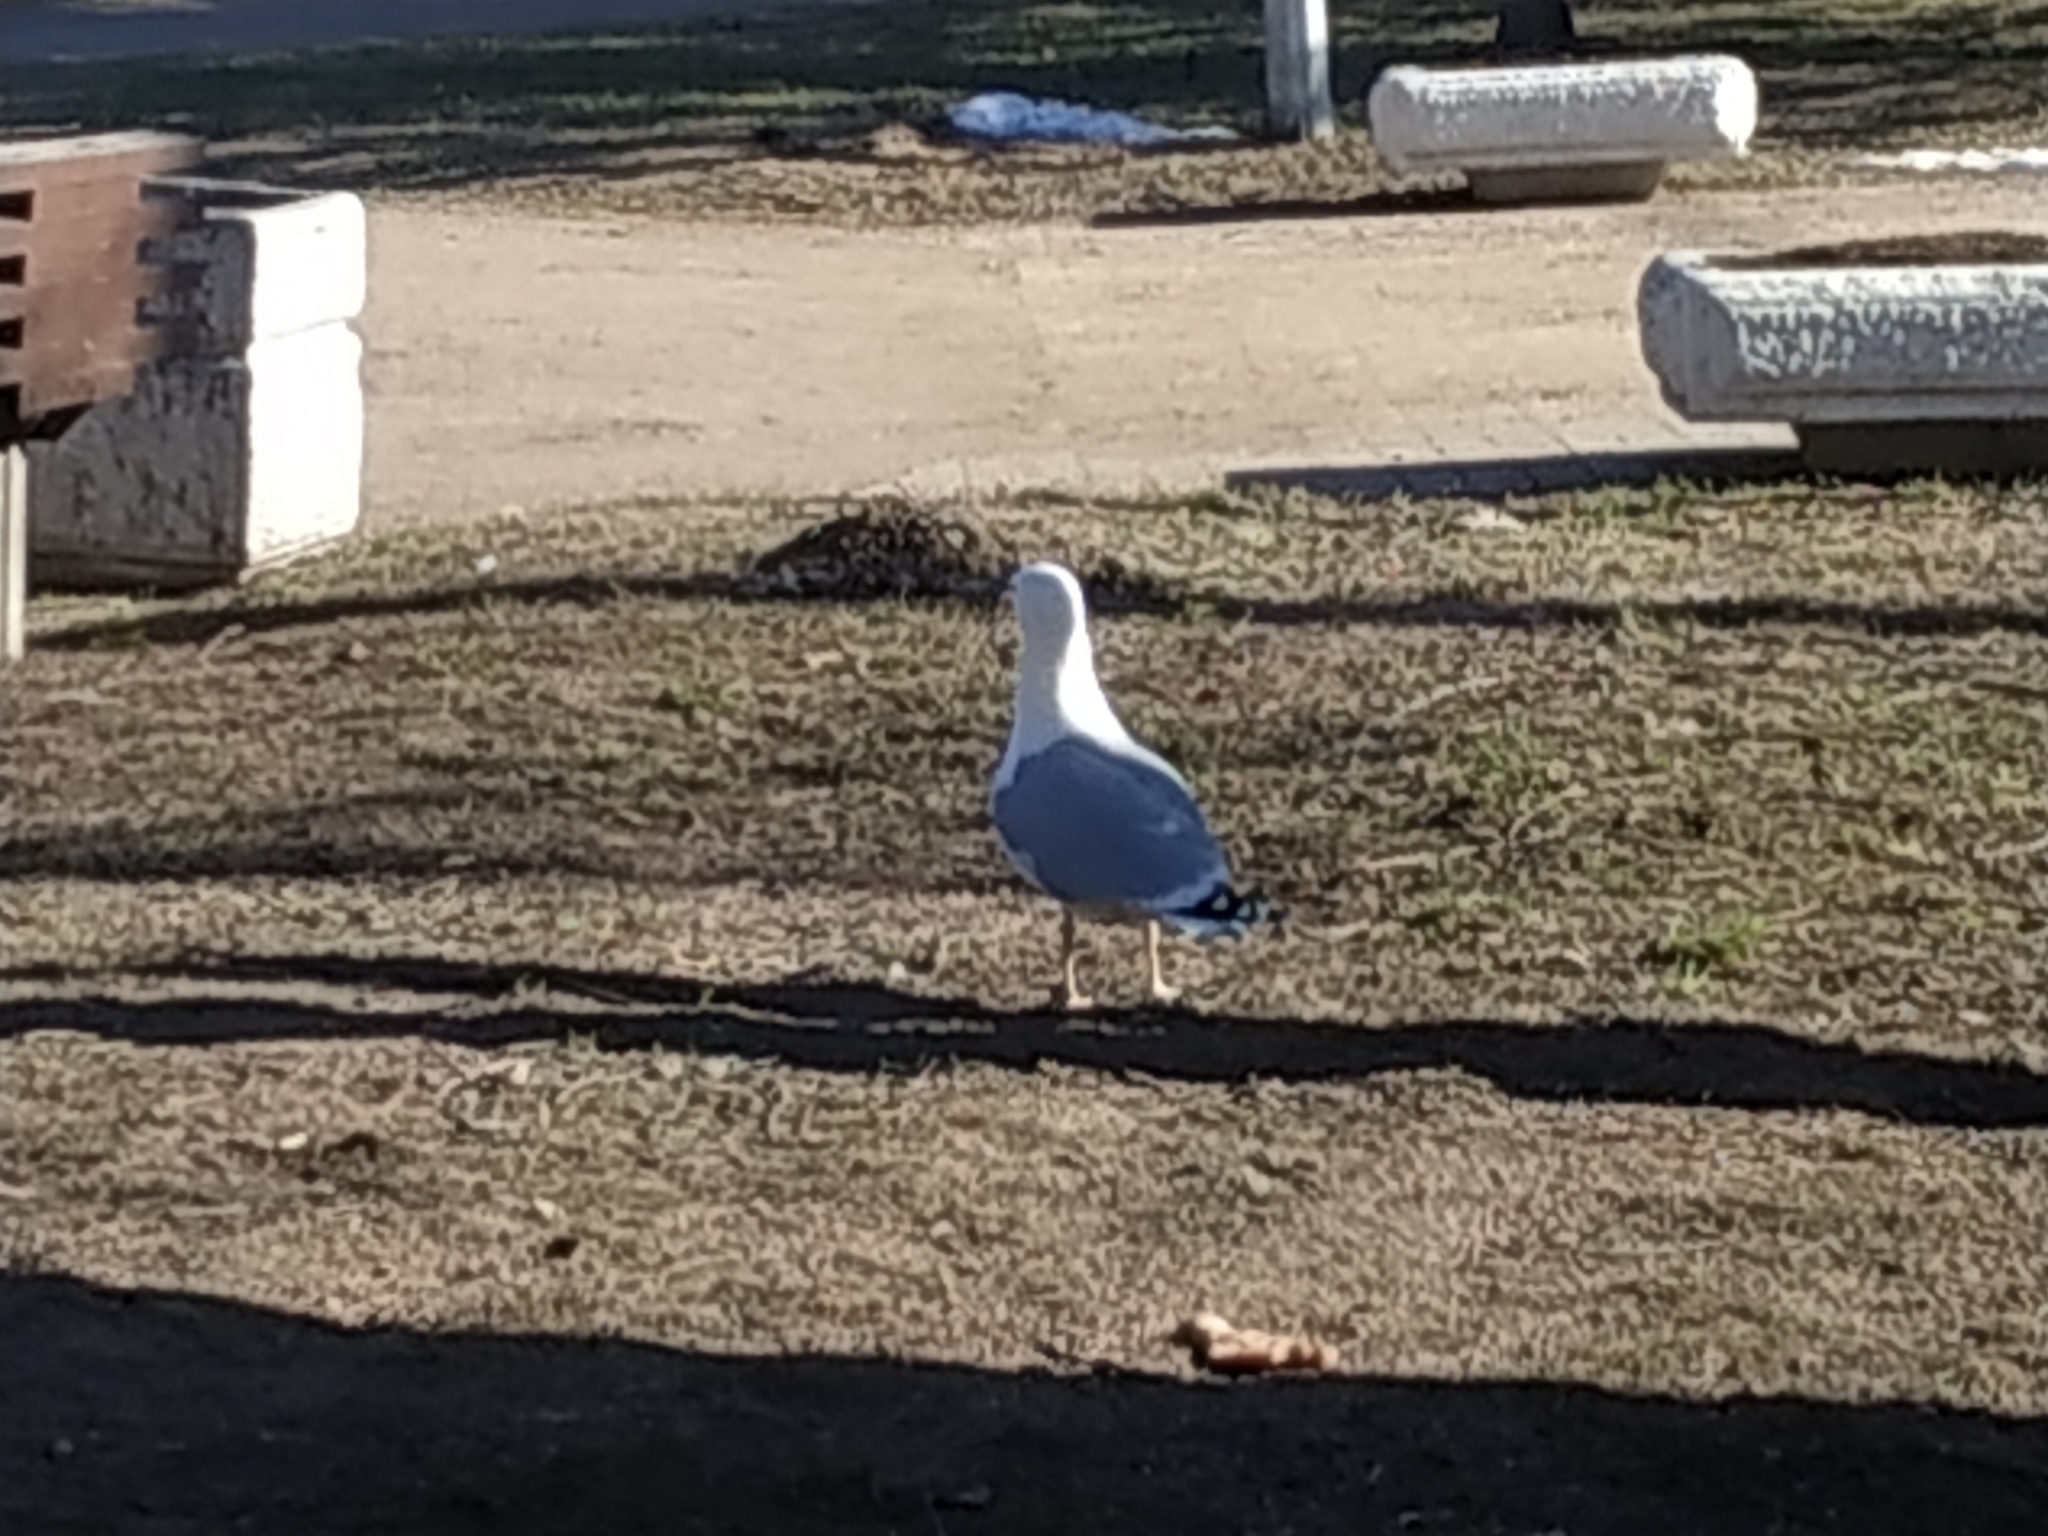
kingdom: Animalia
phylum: Chordata
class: Aves
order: Charadriiformes
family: Laridae
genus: Larus
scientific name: Larus argentatus
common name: Herring gull
